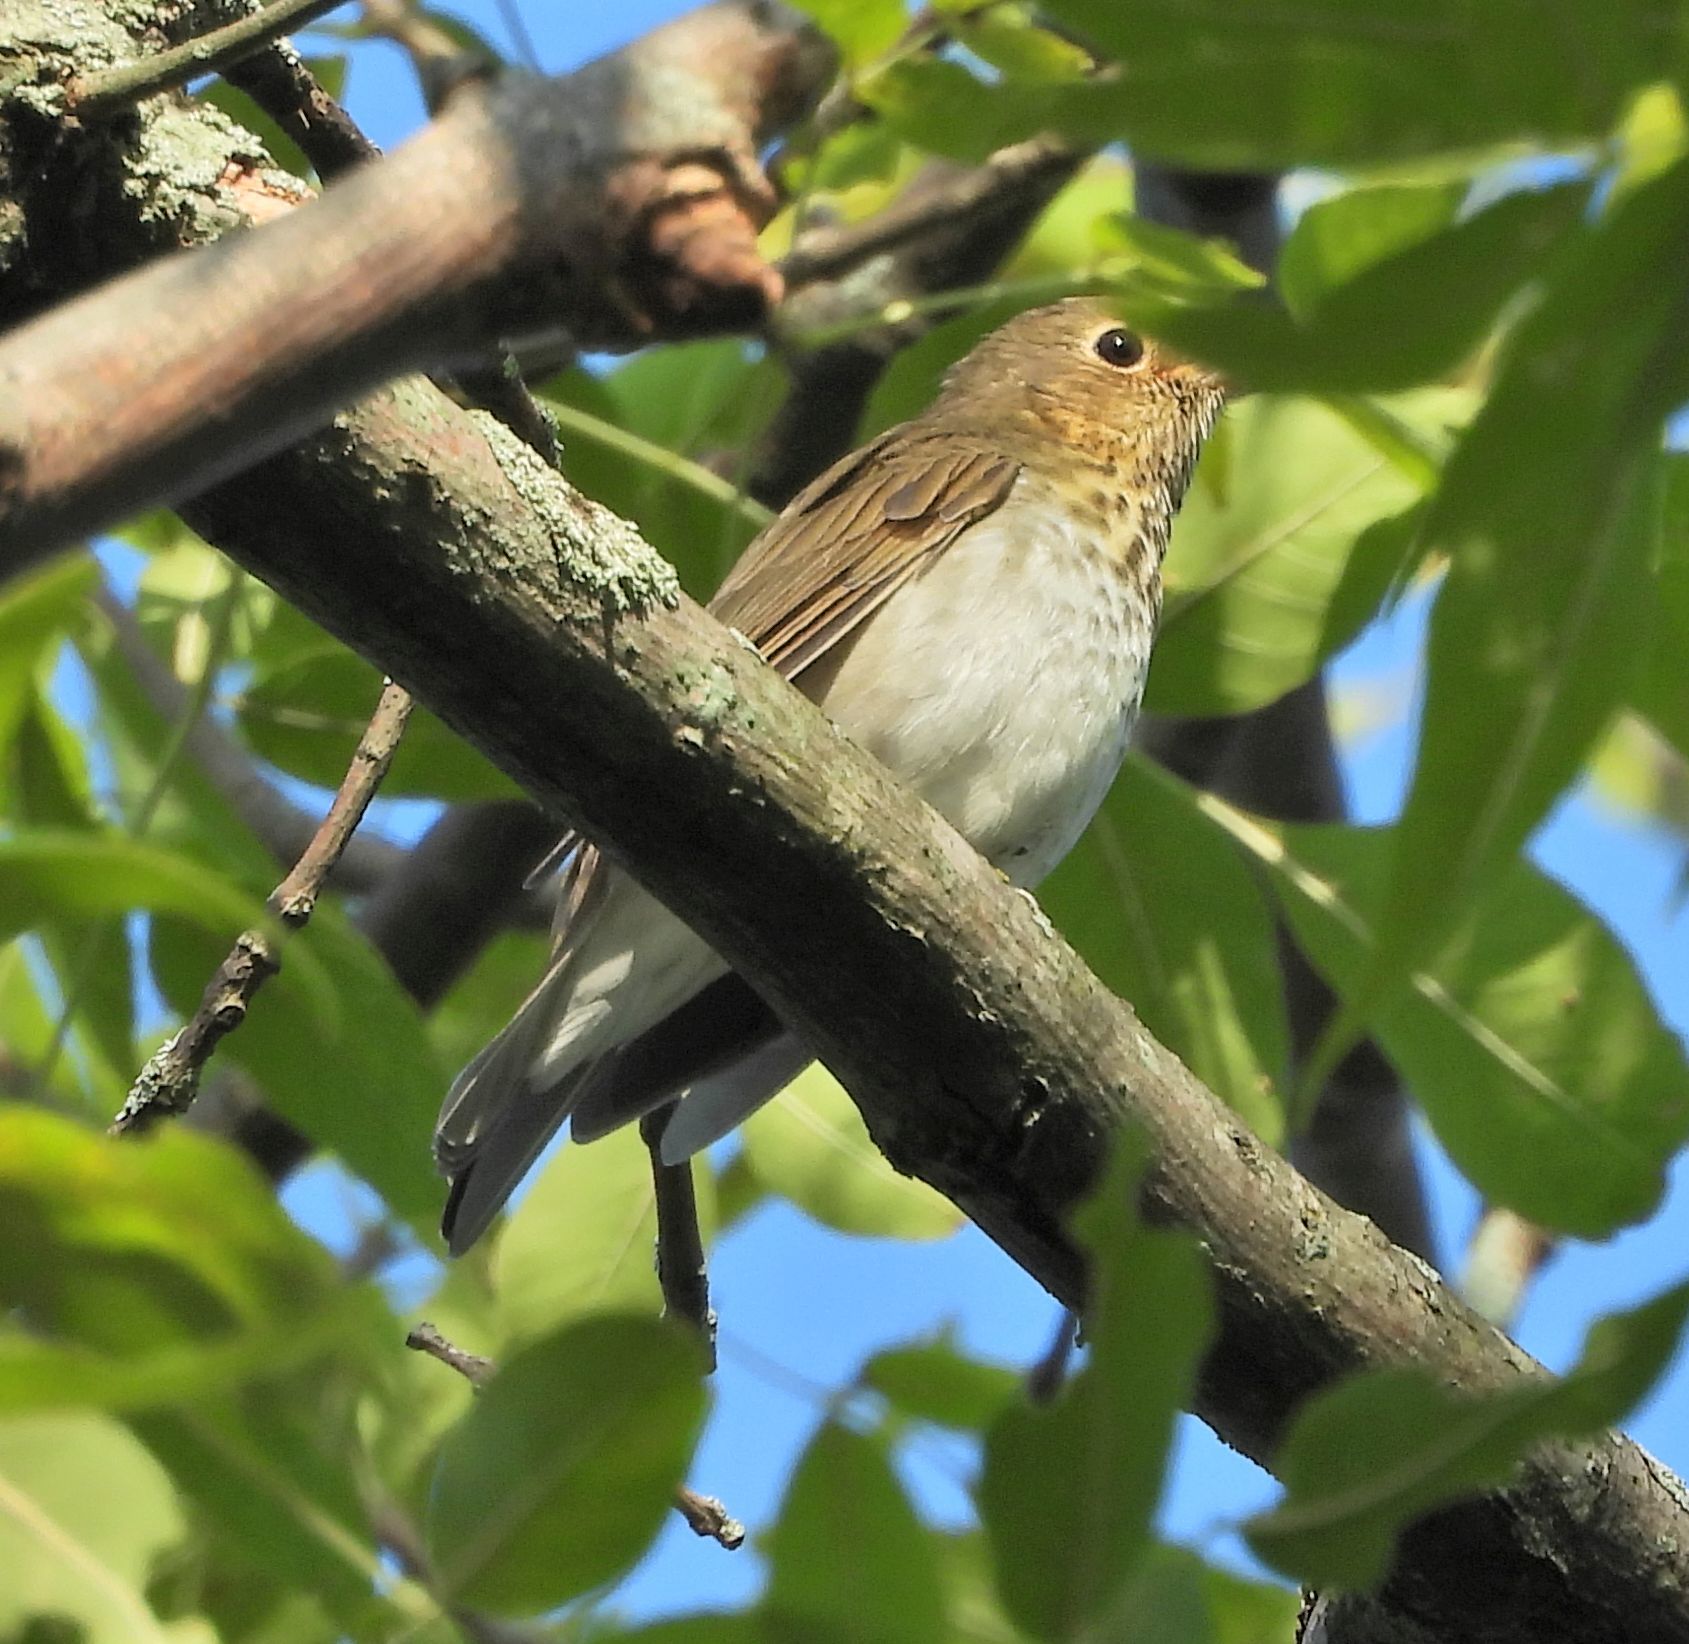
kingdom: Animalia
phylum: Chordata
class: Aves
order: Passeriformes
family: Turdidae
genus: Catharus
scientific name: Catharus ustulatus
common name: Swainson's thrush
